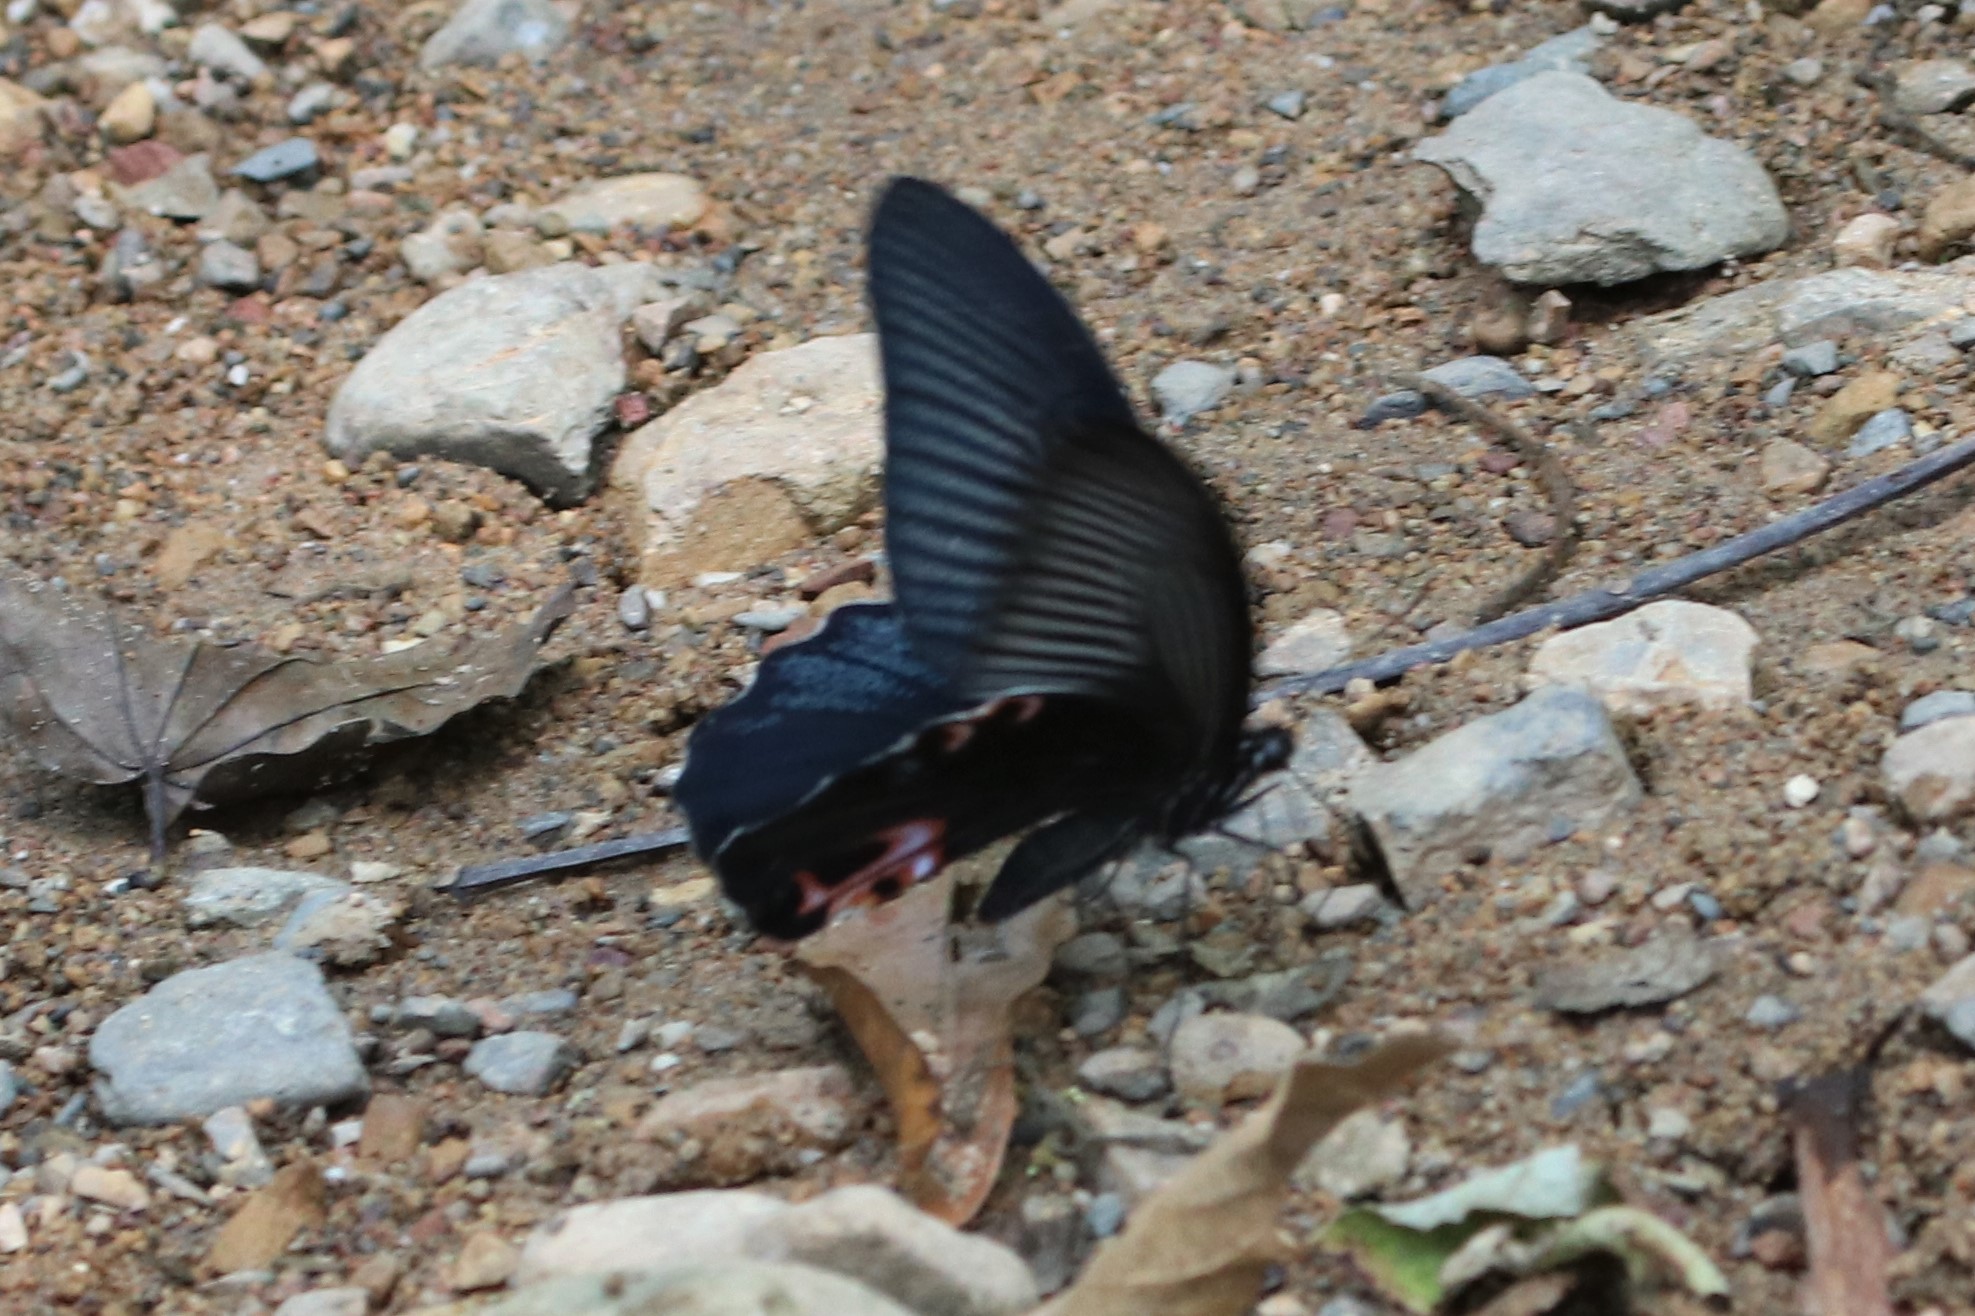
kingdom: Animalia
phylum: Arthropoda
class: Insecta
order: Lepidoptera
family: Papilionidae
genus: Papilio
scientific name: Papilio protenor
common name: Spangle
